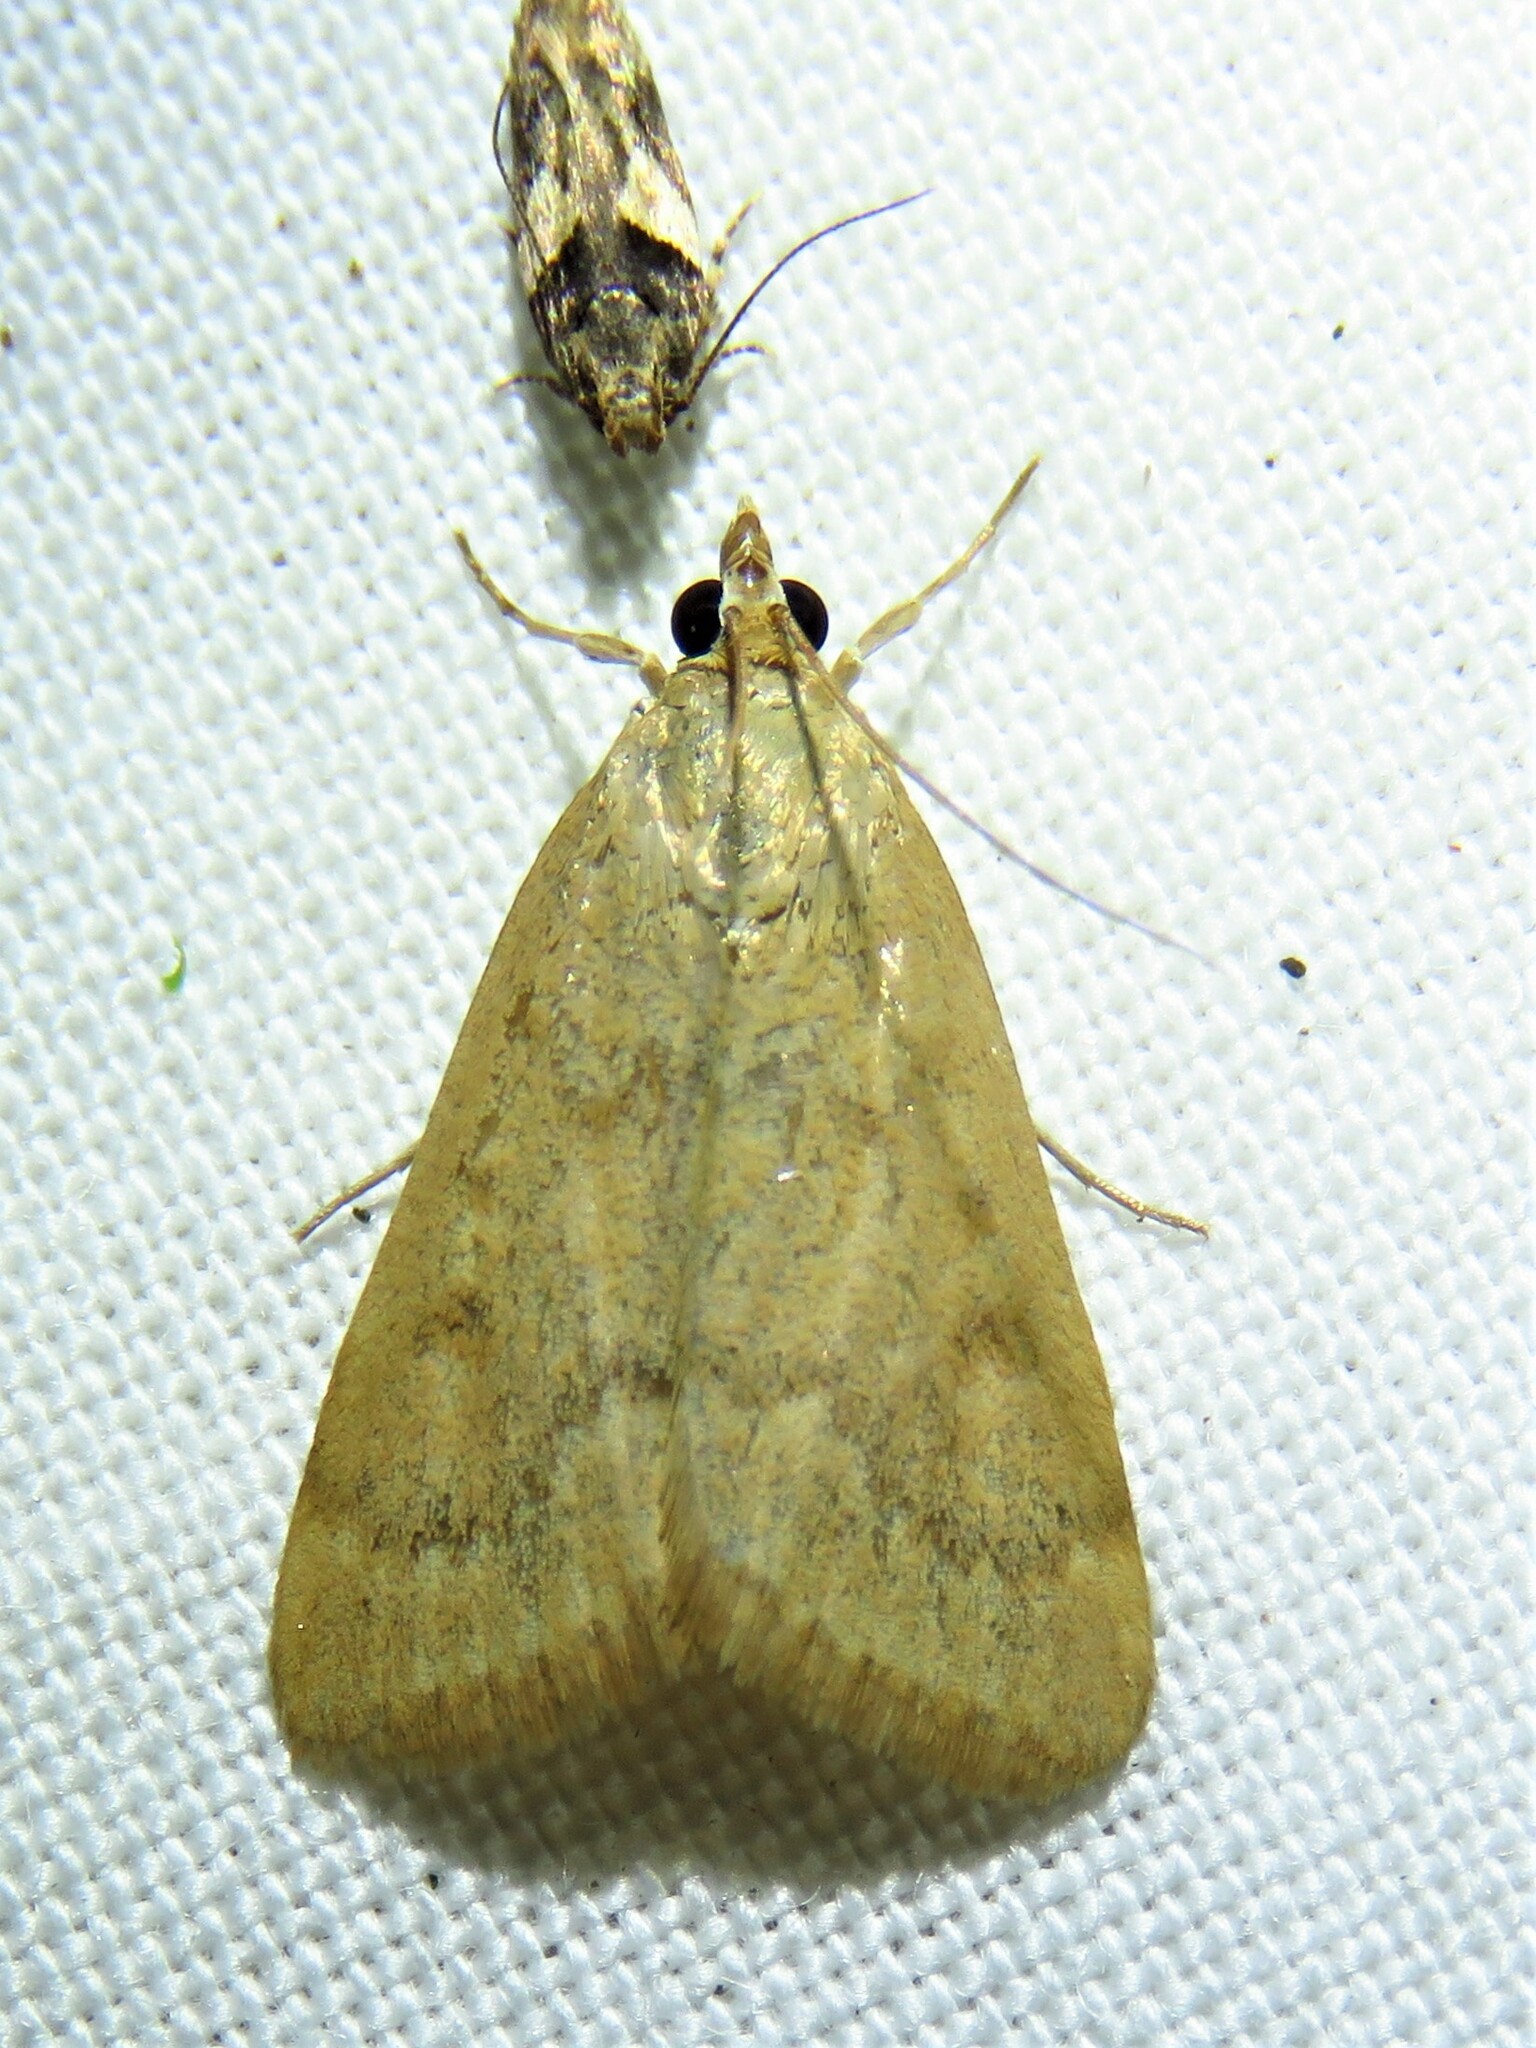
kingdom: Animalia
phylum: Arthropoda
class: Insecta
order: Lepidoptera
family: Crambidae
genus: Achyra
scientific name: Achyra rantalis
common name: Garden webworm
